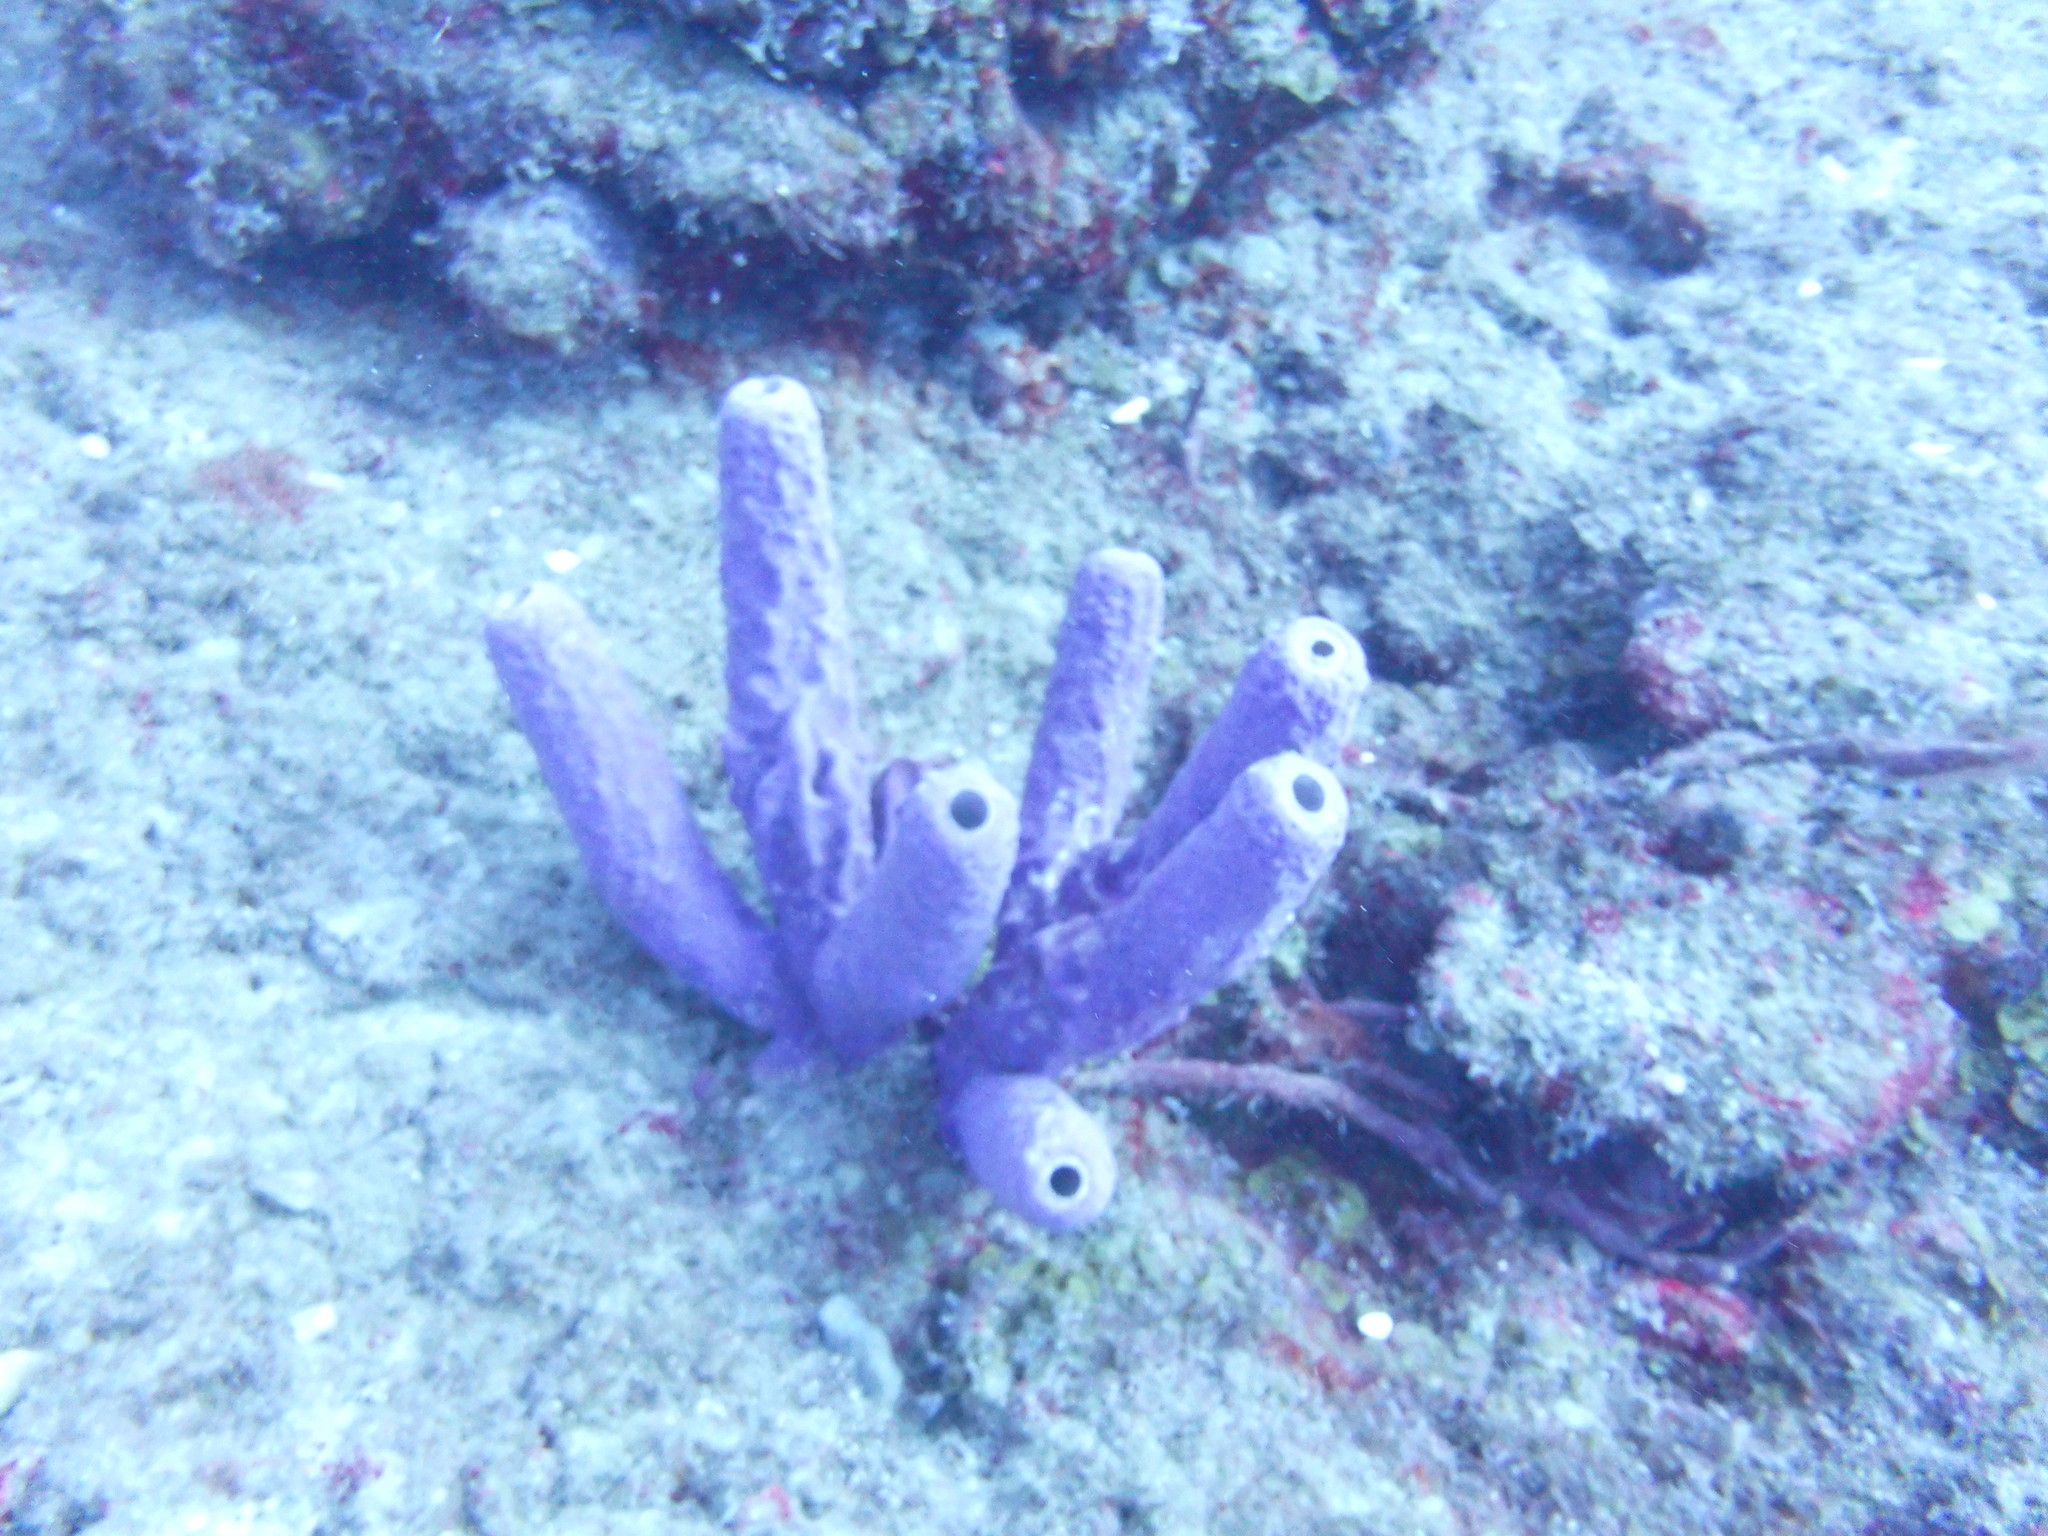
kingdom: Animalia
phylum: Porifera
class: Demospongiae
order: Verongiida
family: Aplysinidae
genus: Aplysina
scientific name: Aplysina archeri
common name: Stove-pipe sponge
